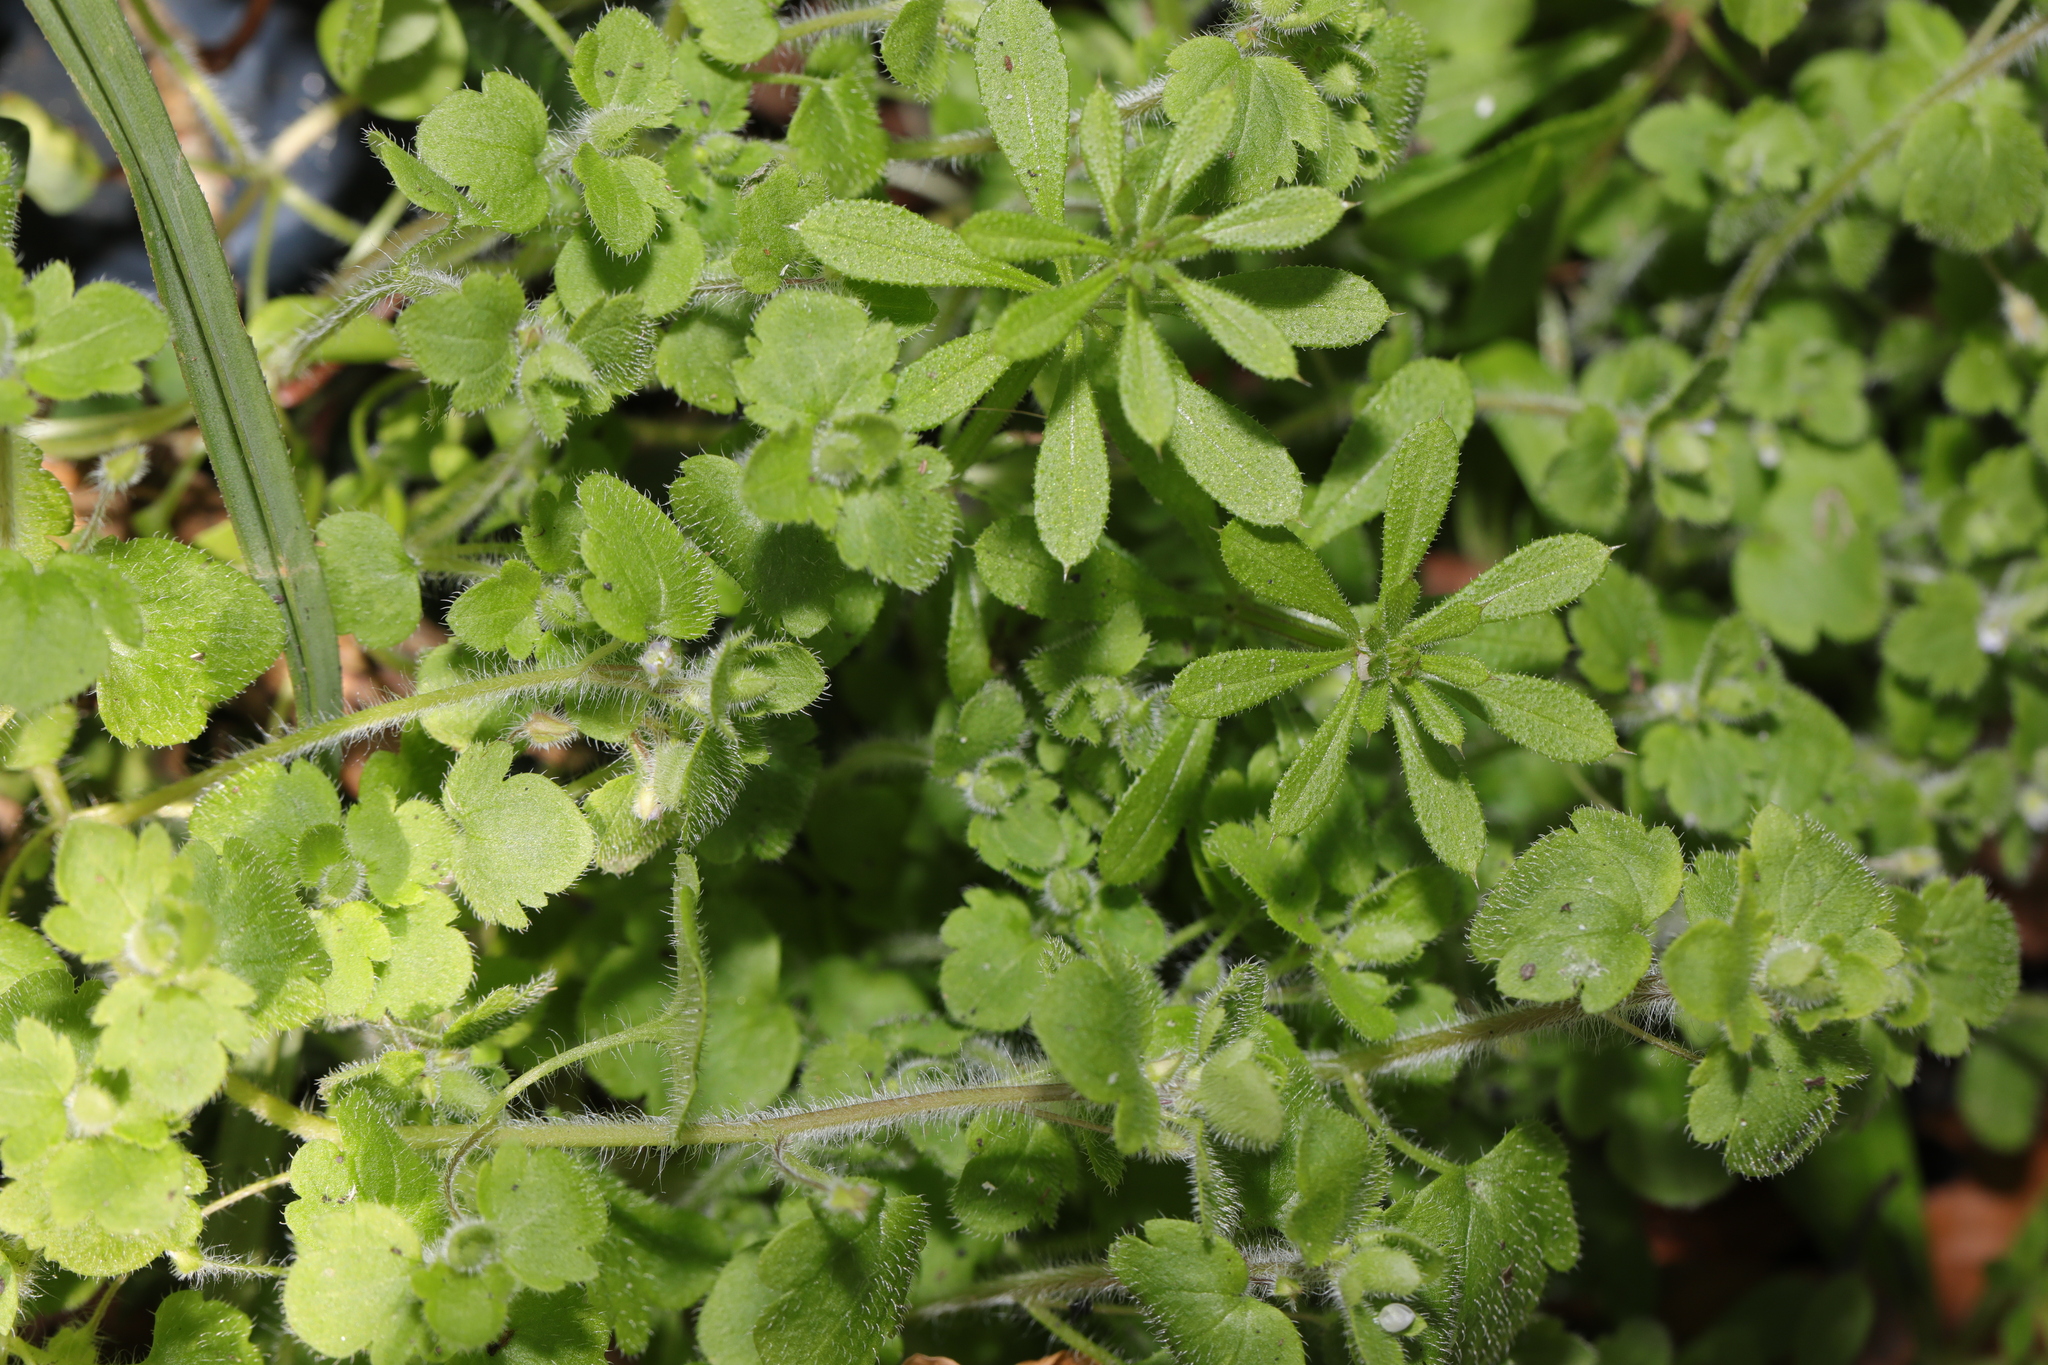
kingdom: Plantae
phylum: Tracheophyta
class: Magnoliopsida
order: Lamiales
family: Plantaginaceae
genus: Veronica
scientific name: Veronica sublobata
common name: False ivy-leaved speedwell
